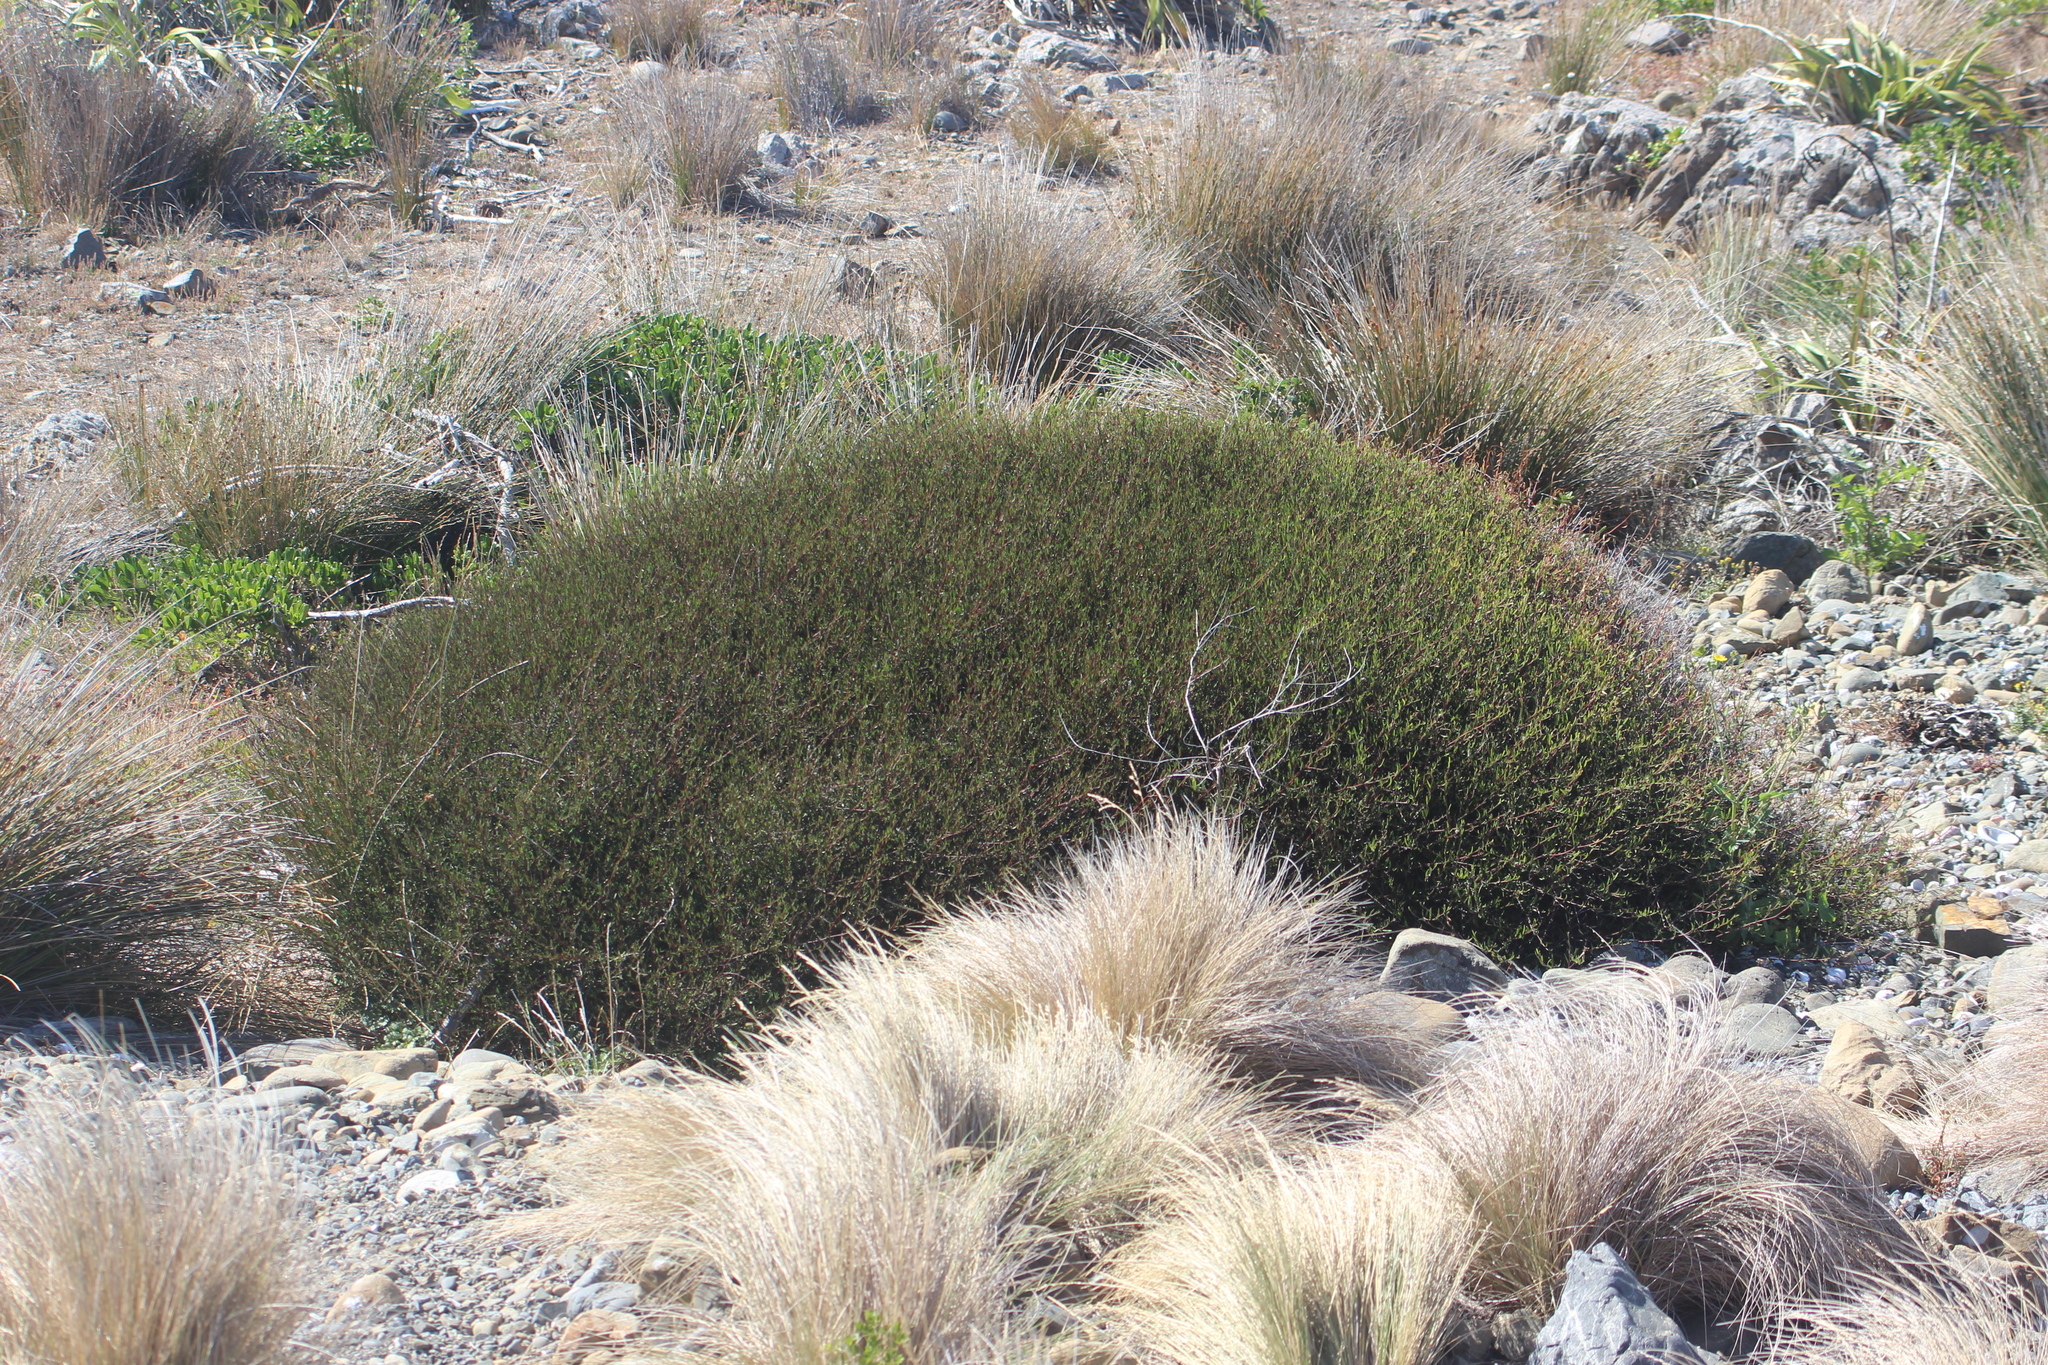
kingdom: Plantae
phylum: Tracheophyta
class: Magnoliopsida
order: Malvales
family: Malvaceae
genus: Plagianthus
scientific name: Plagianthus divaricatus
